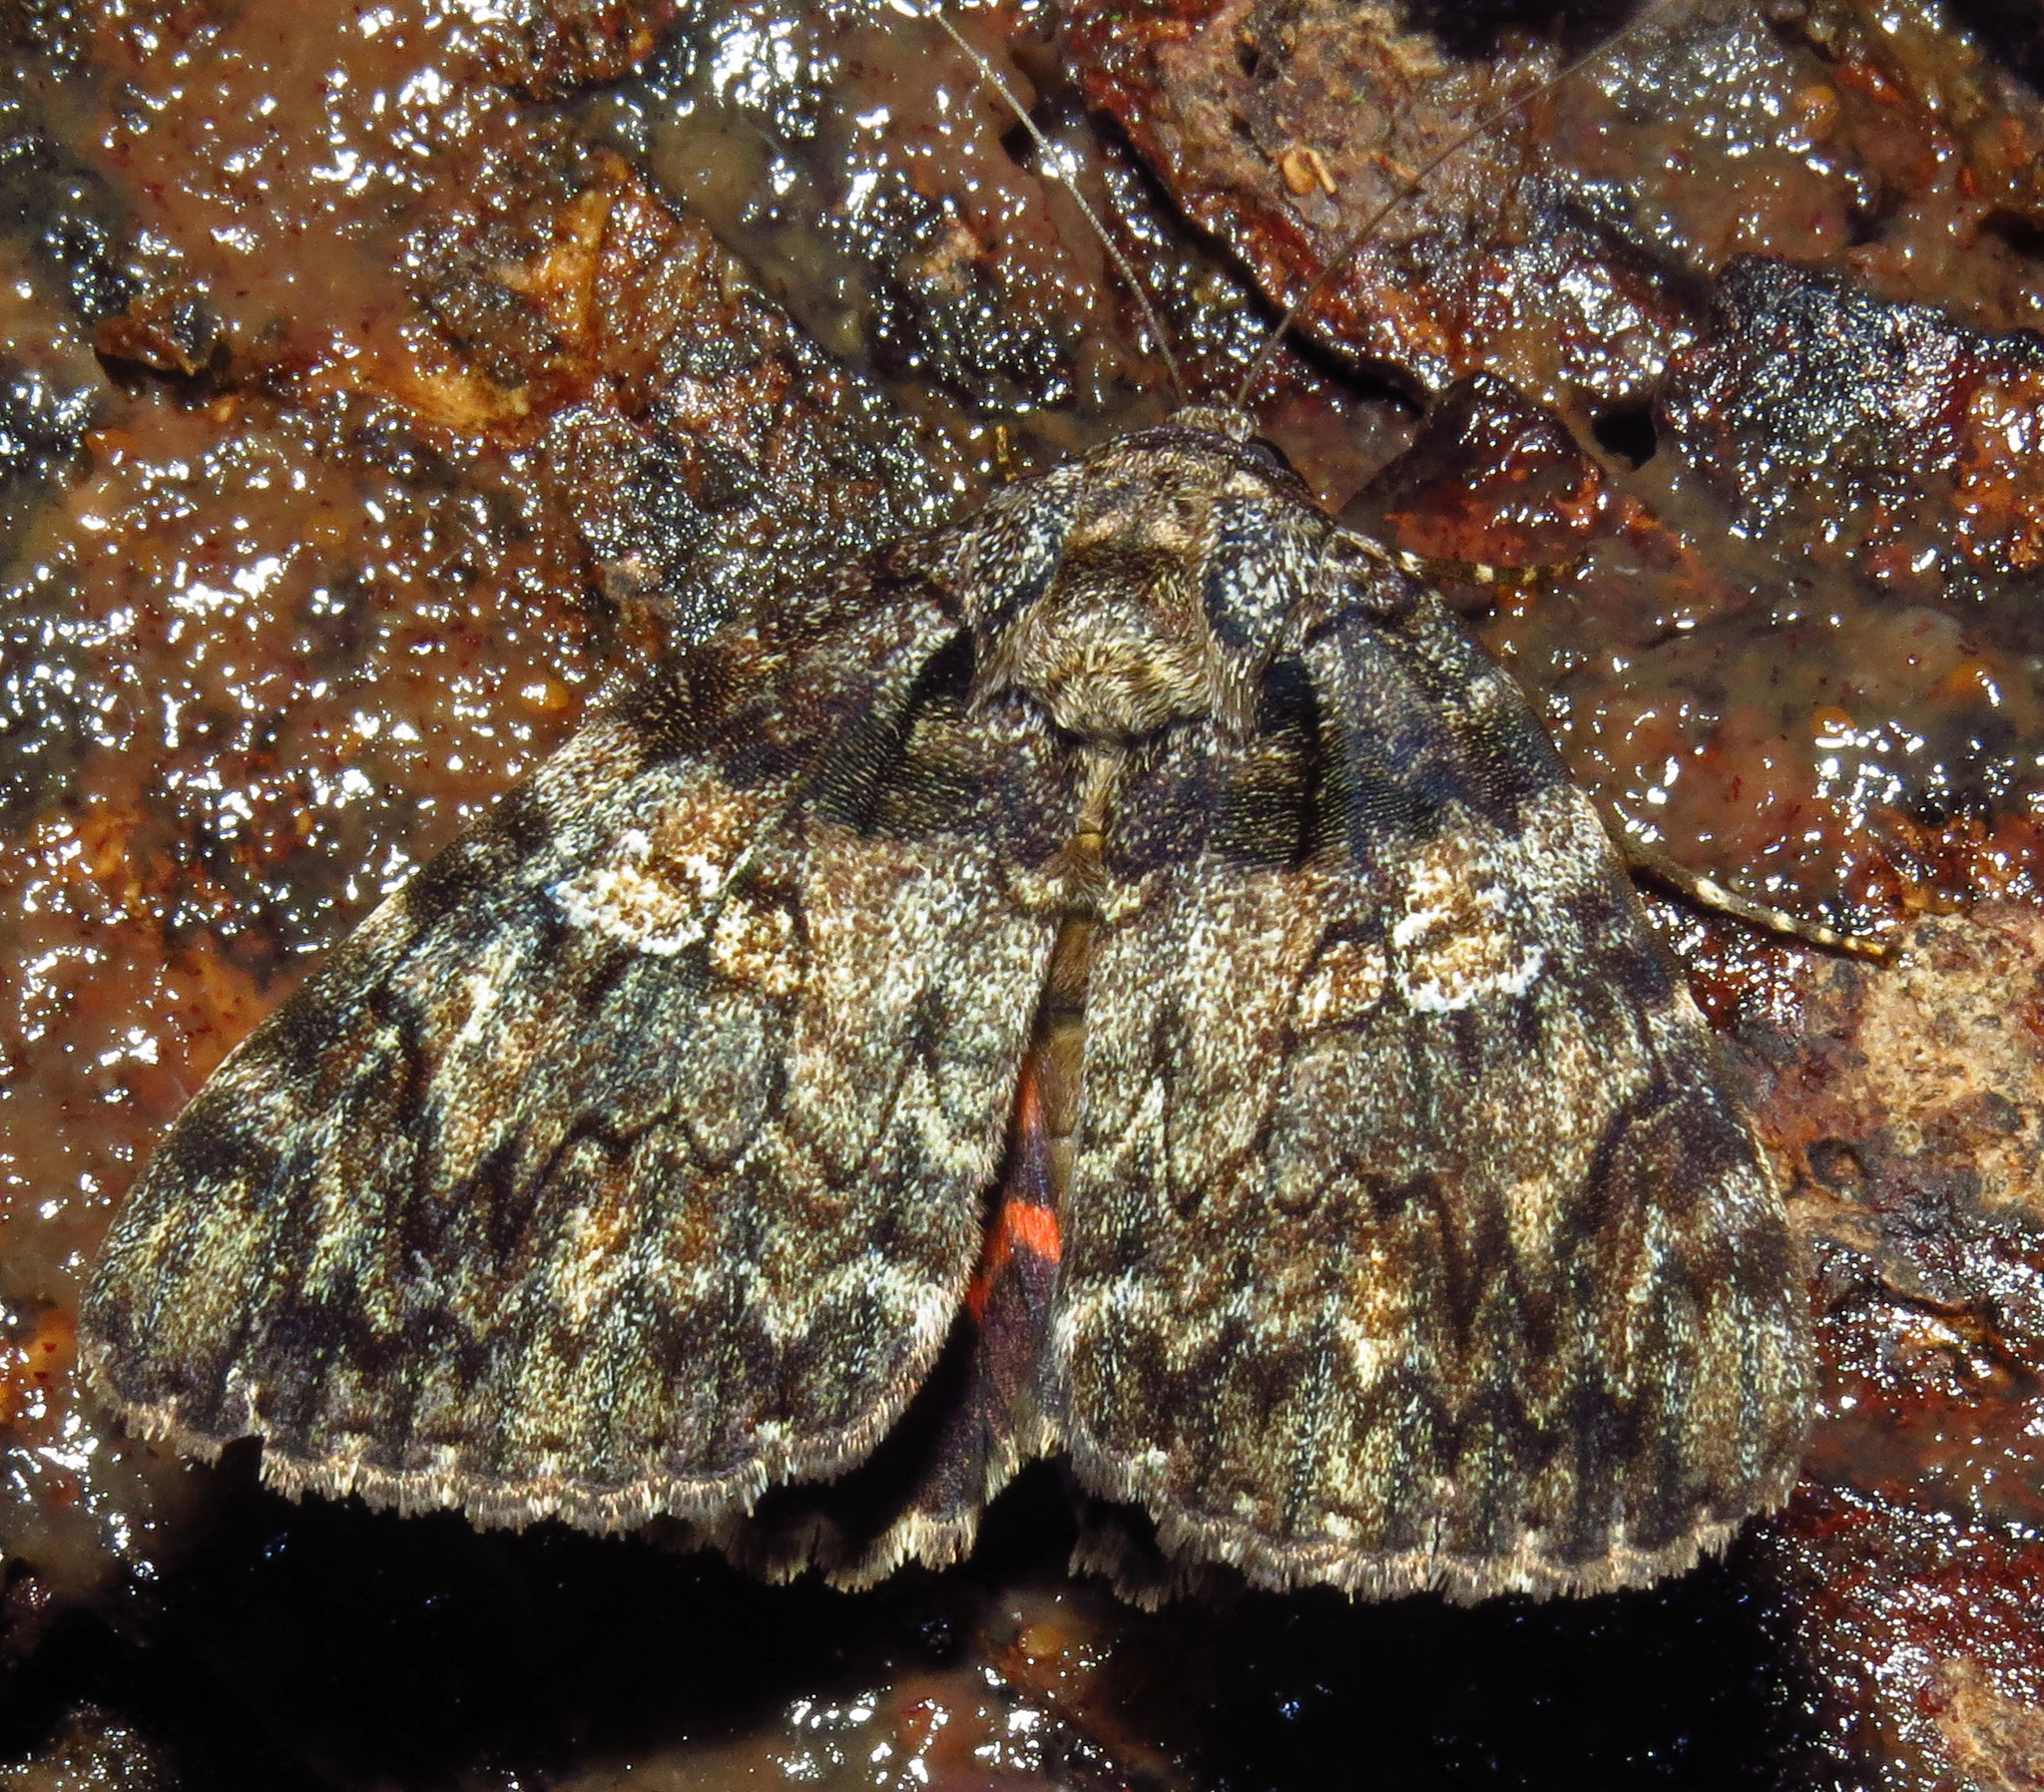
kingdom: Animalia
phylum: Arthropoda
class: Insecta
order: Lepidoptera
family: Erebidae
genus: Catocala
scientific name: Catocala ilia
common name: Ilia underwing
